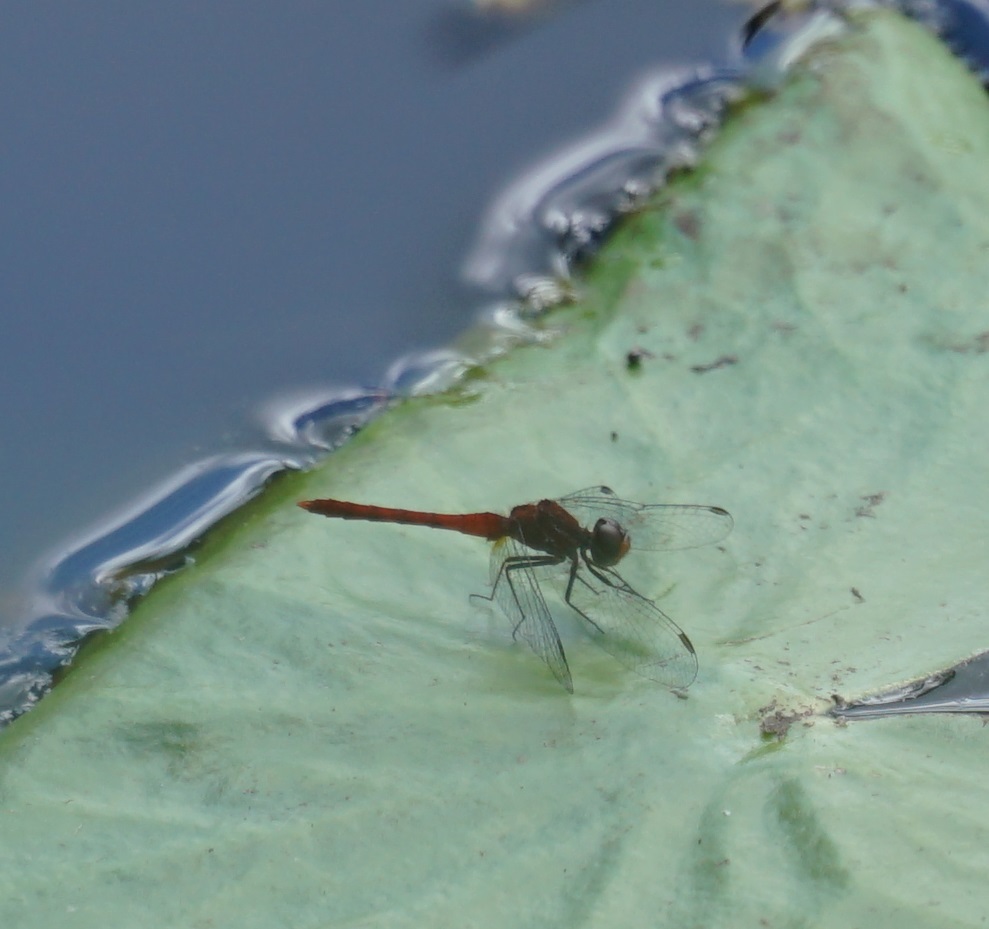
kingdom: Animalia
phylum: Arthropoda
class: Insecta
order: Odonata
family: Libellulidae
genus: Nannodiplax
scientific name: Nannodiplax rubra
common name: Pygmy percher
